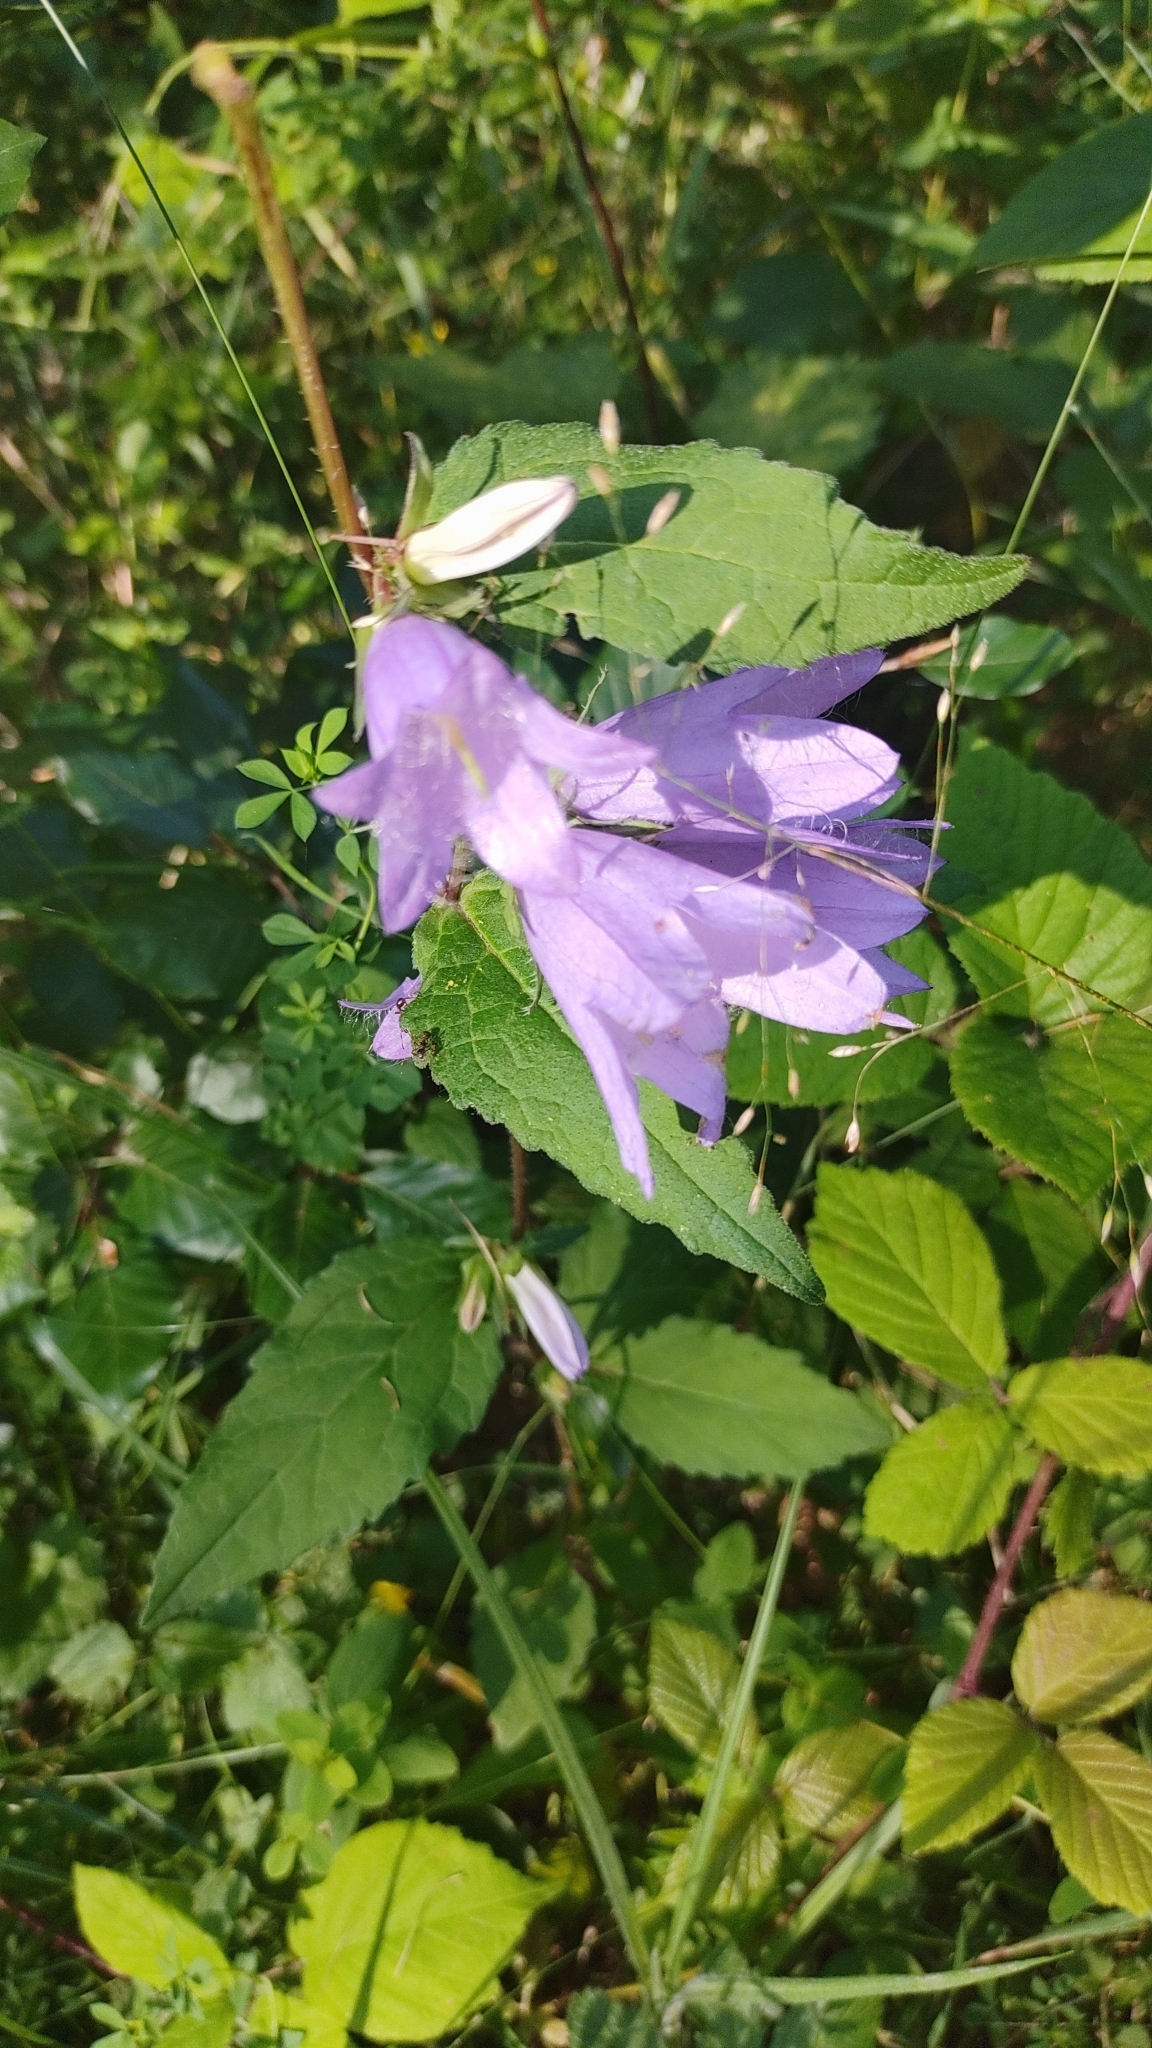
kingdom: Plantae
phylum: Tracheophyta
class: Magnoliopsida
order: Asterales
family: Campanulaceae
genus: Campanula
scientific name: Campanula trachelium
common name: Nettle-leaved bellflower
